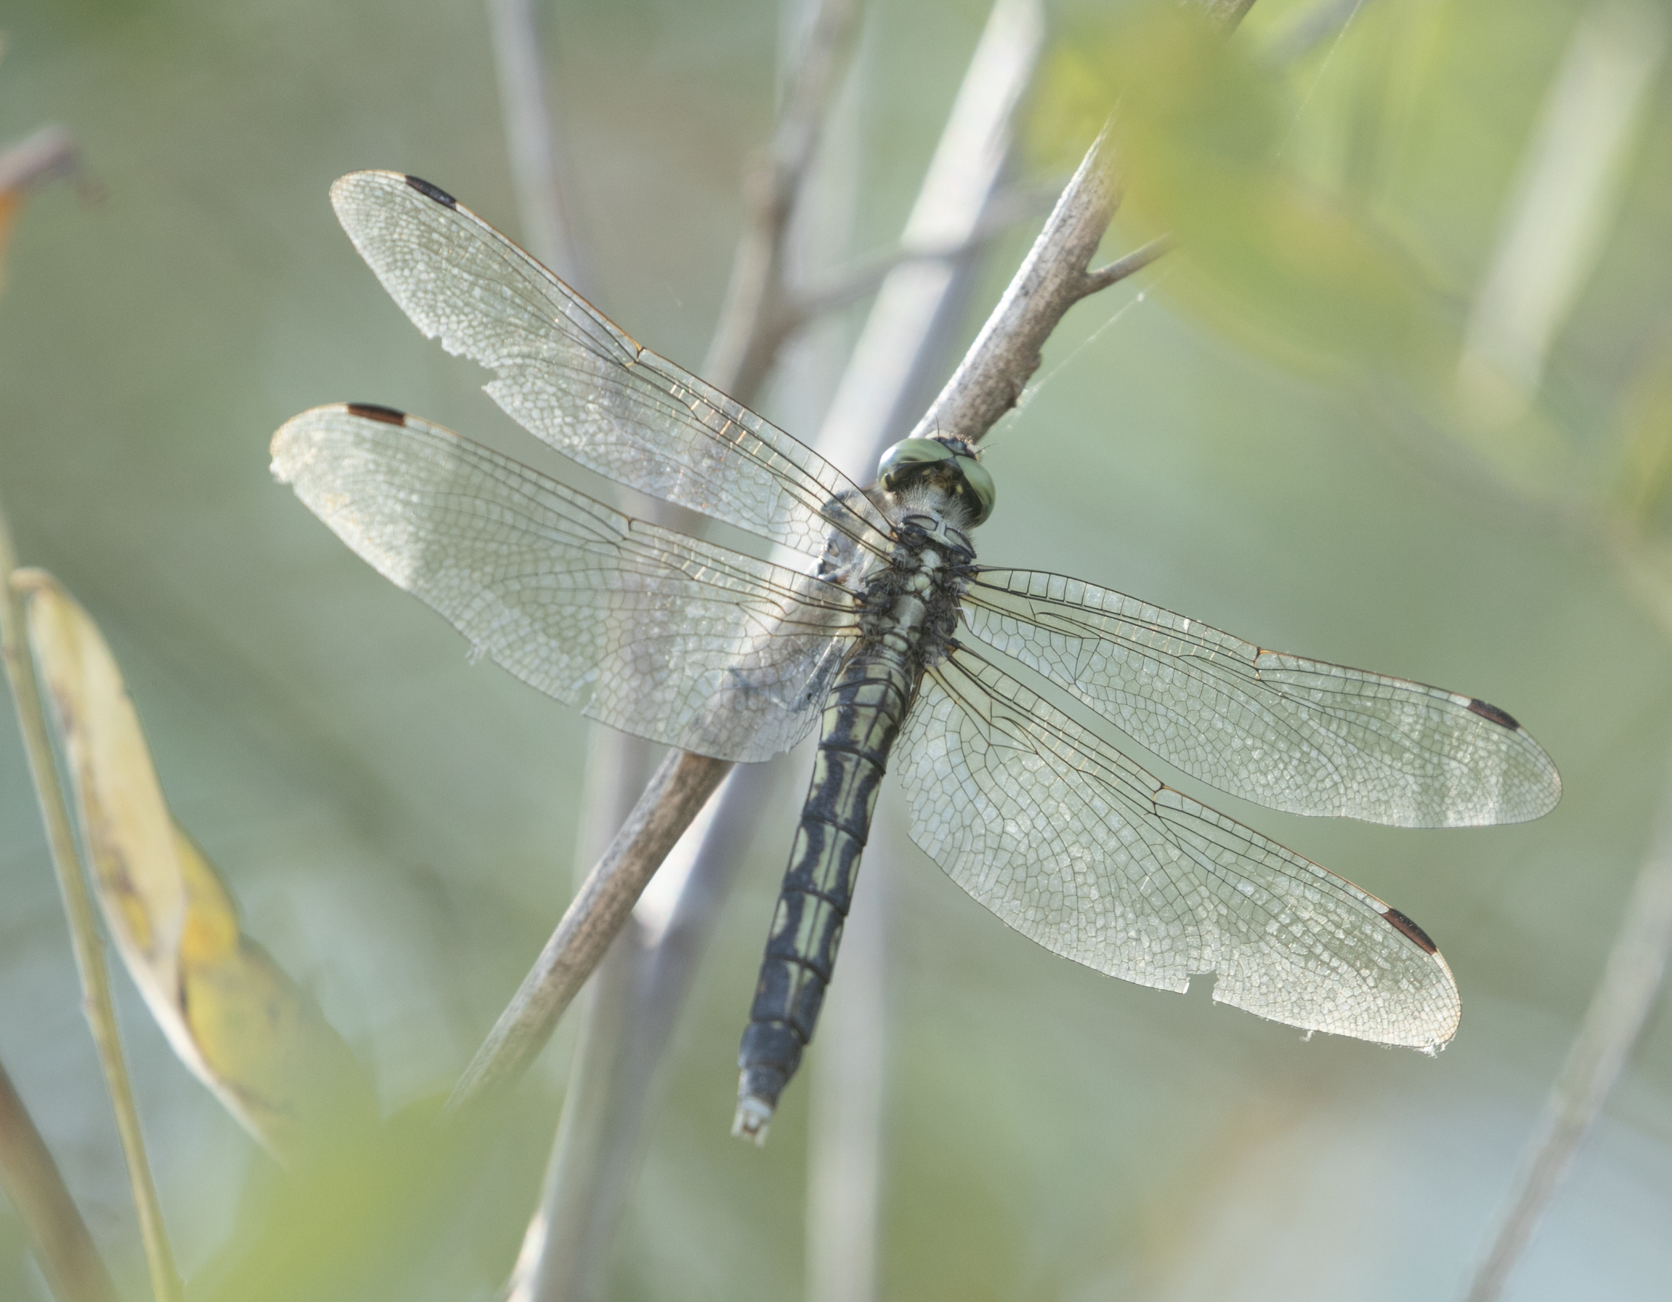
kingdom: Animalia
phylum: Arthropoda
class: Insecta
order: Odonata
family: Libellulidae
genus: Orthetrum
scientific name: Orthetrum albistylum
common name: White-tailed skimmer
